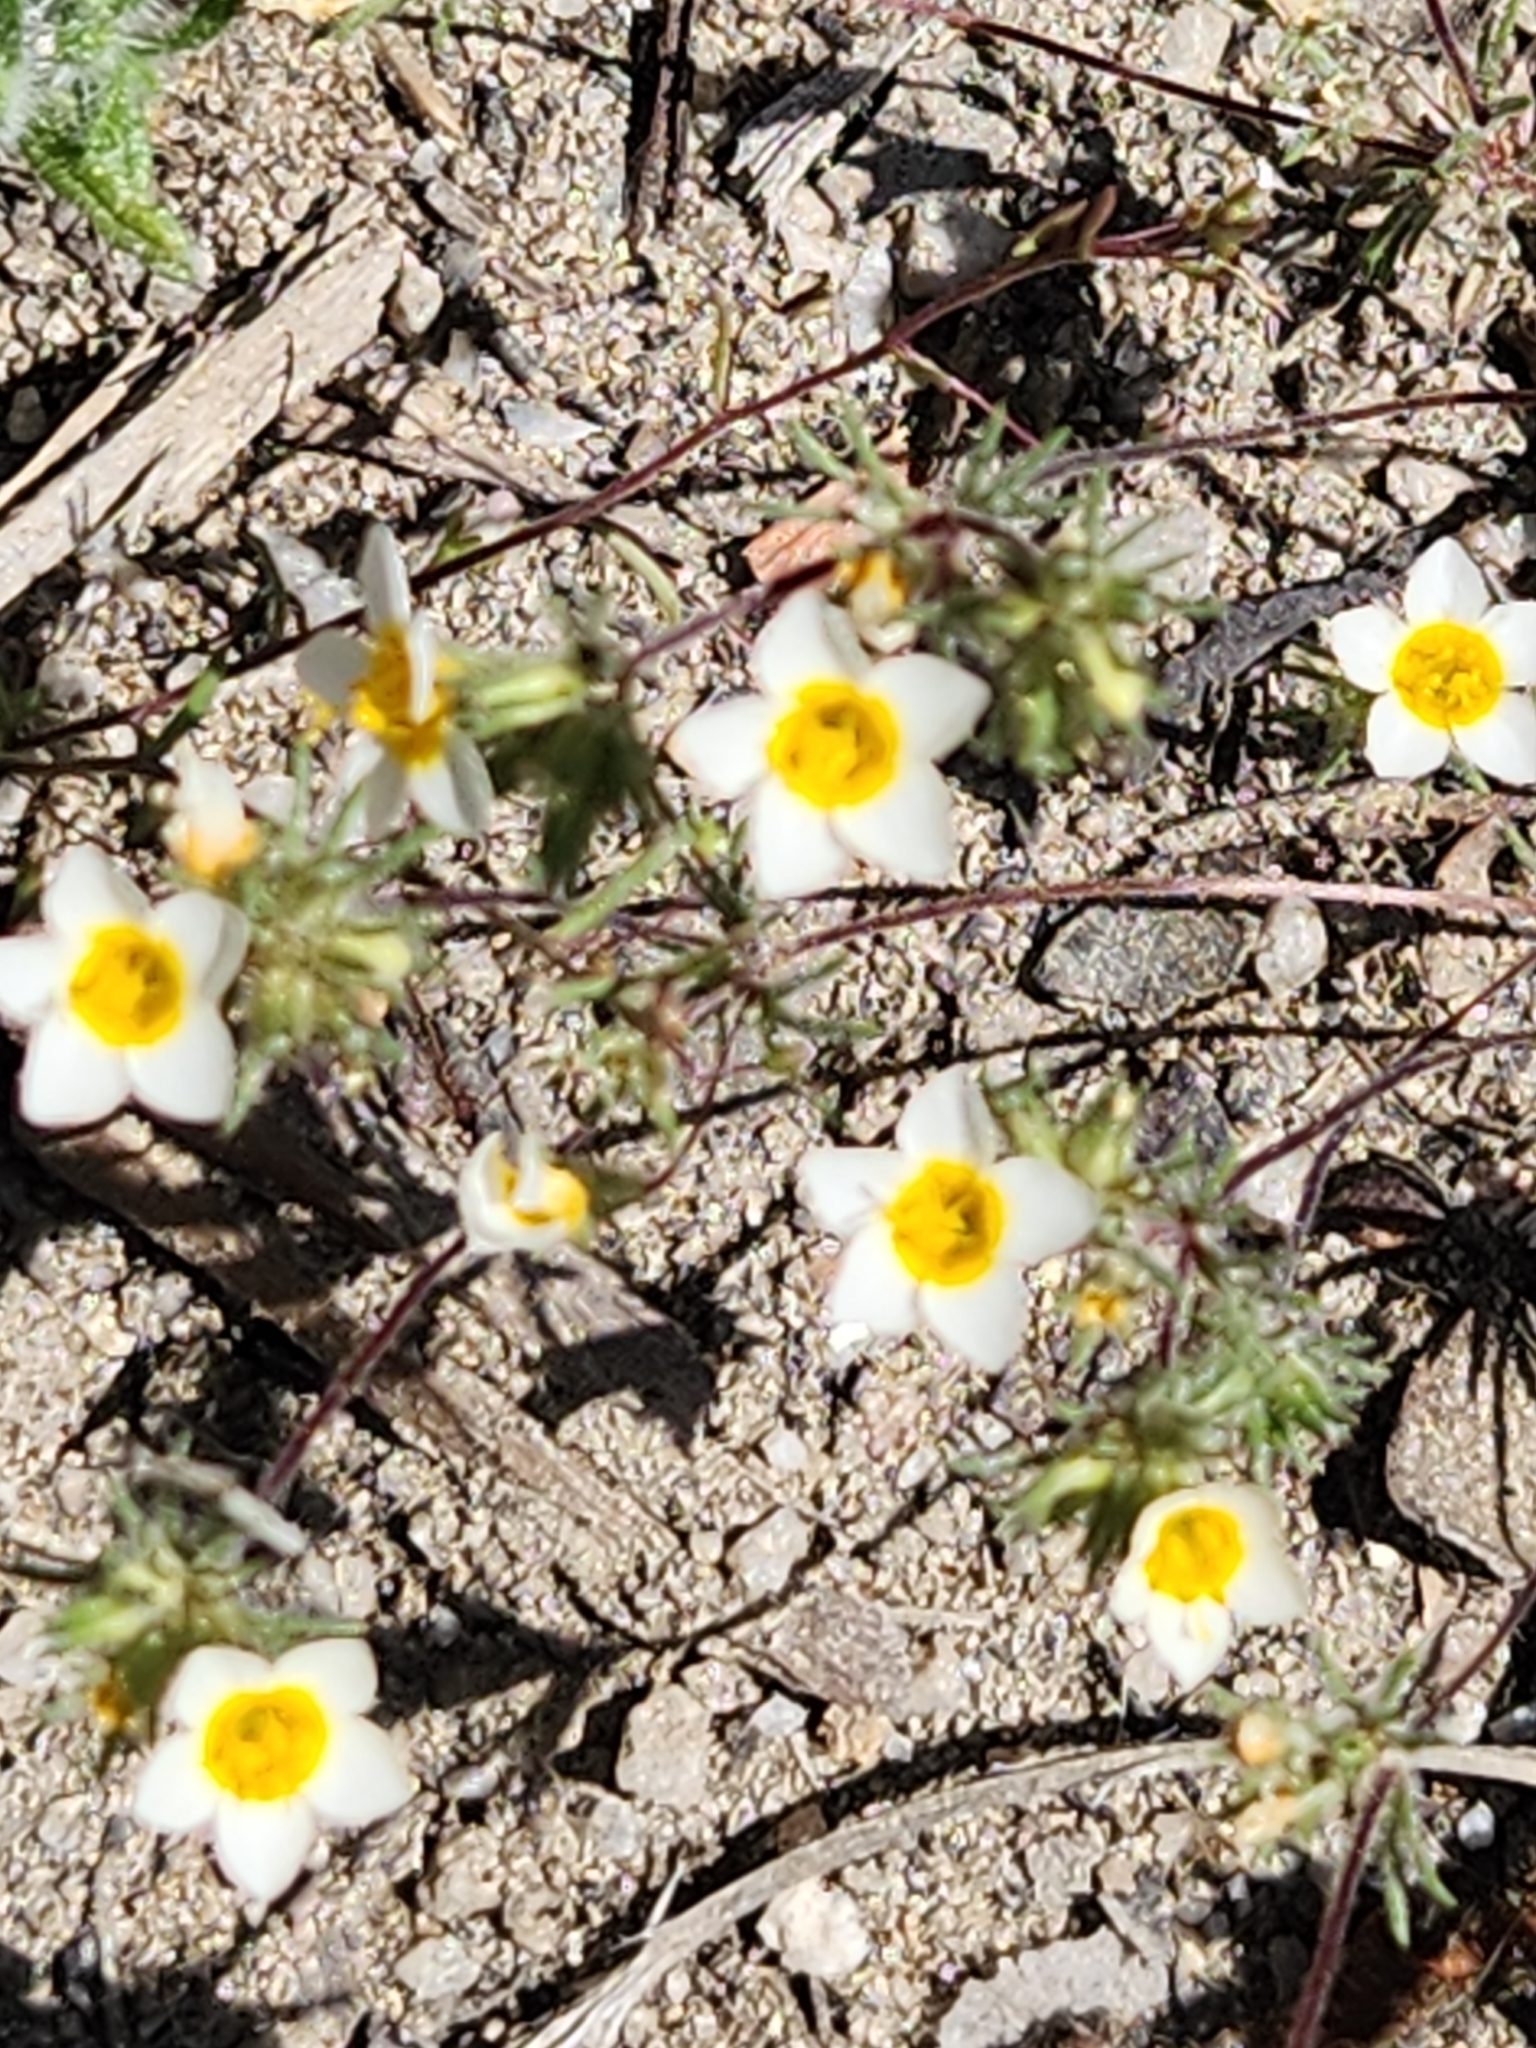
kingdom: Plantae
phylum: Tracheophyta
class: Magnoliopsida
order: Ericales
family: Polemoniaceae
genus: Leptosiphon
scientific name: Leptosiphon lemmonii
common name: Lemmon's linanthus
